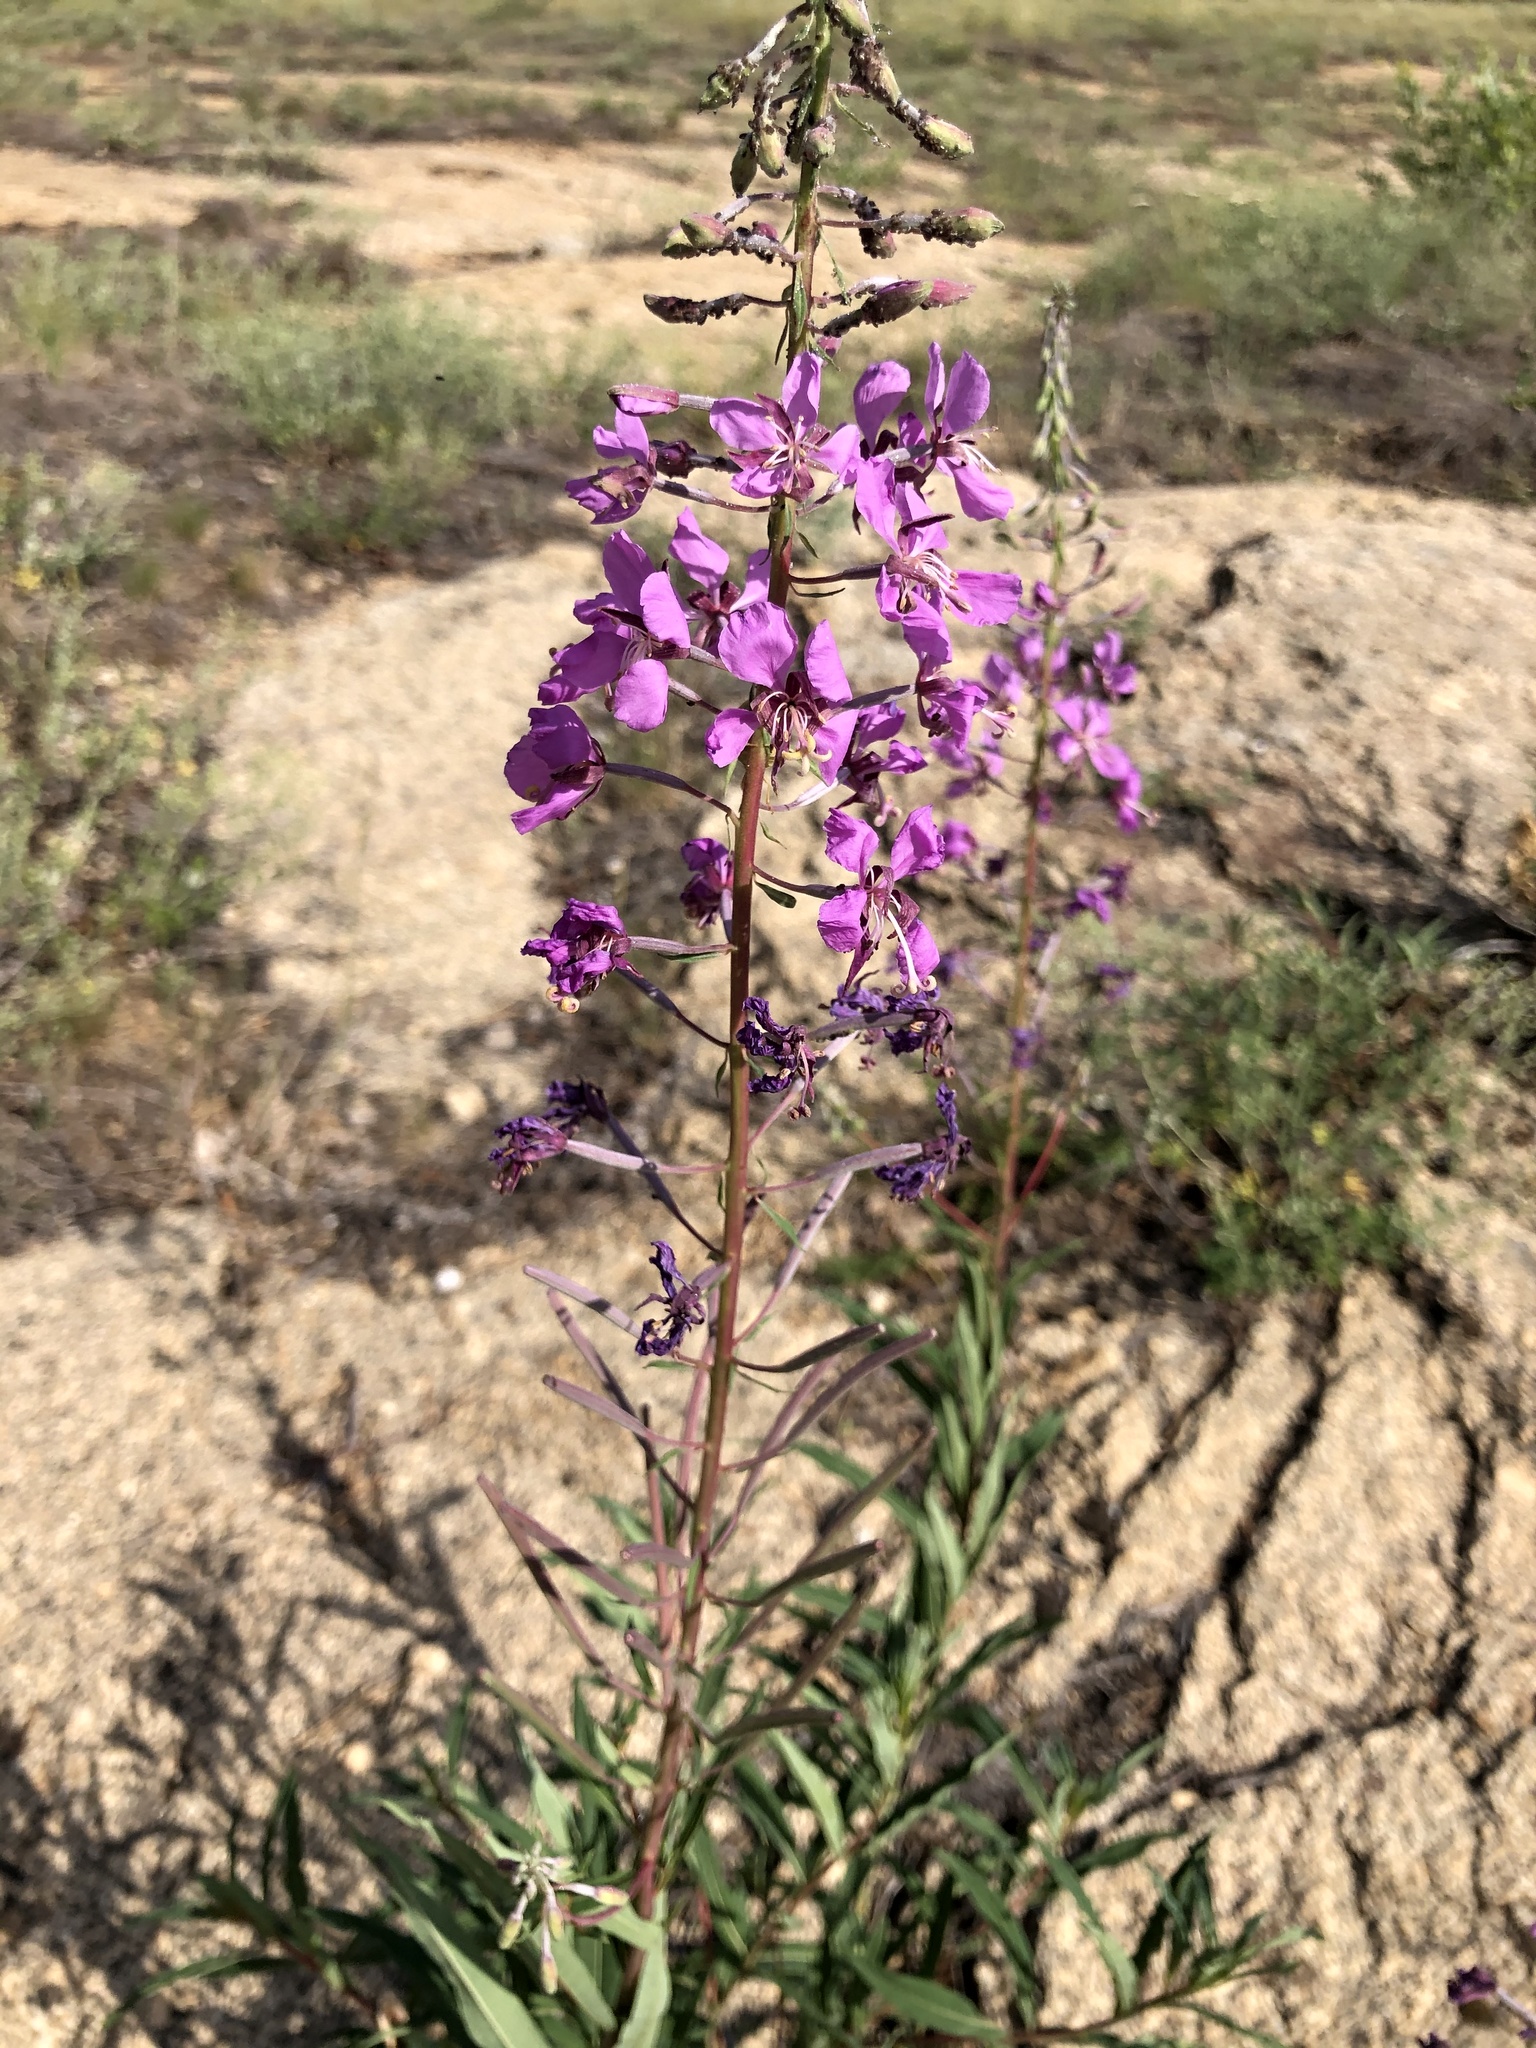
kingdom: Plantae
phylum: Tracheophyta
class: Magnoliopsida
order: Myrtales
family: Onagraceae
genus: Chamaenerion
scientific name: Chamaenerion angustifolium
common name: Fireweed
